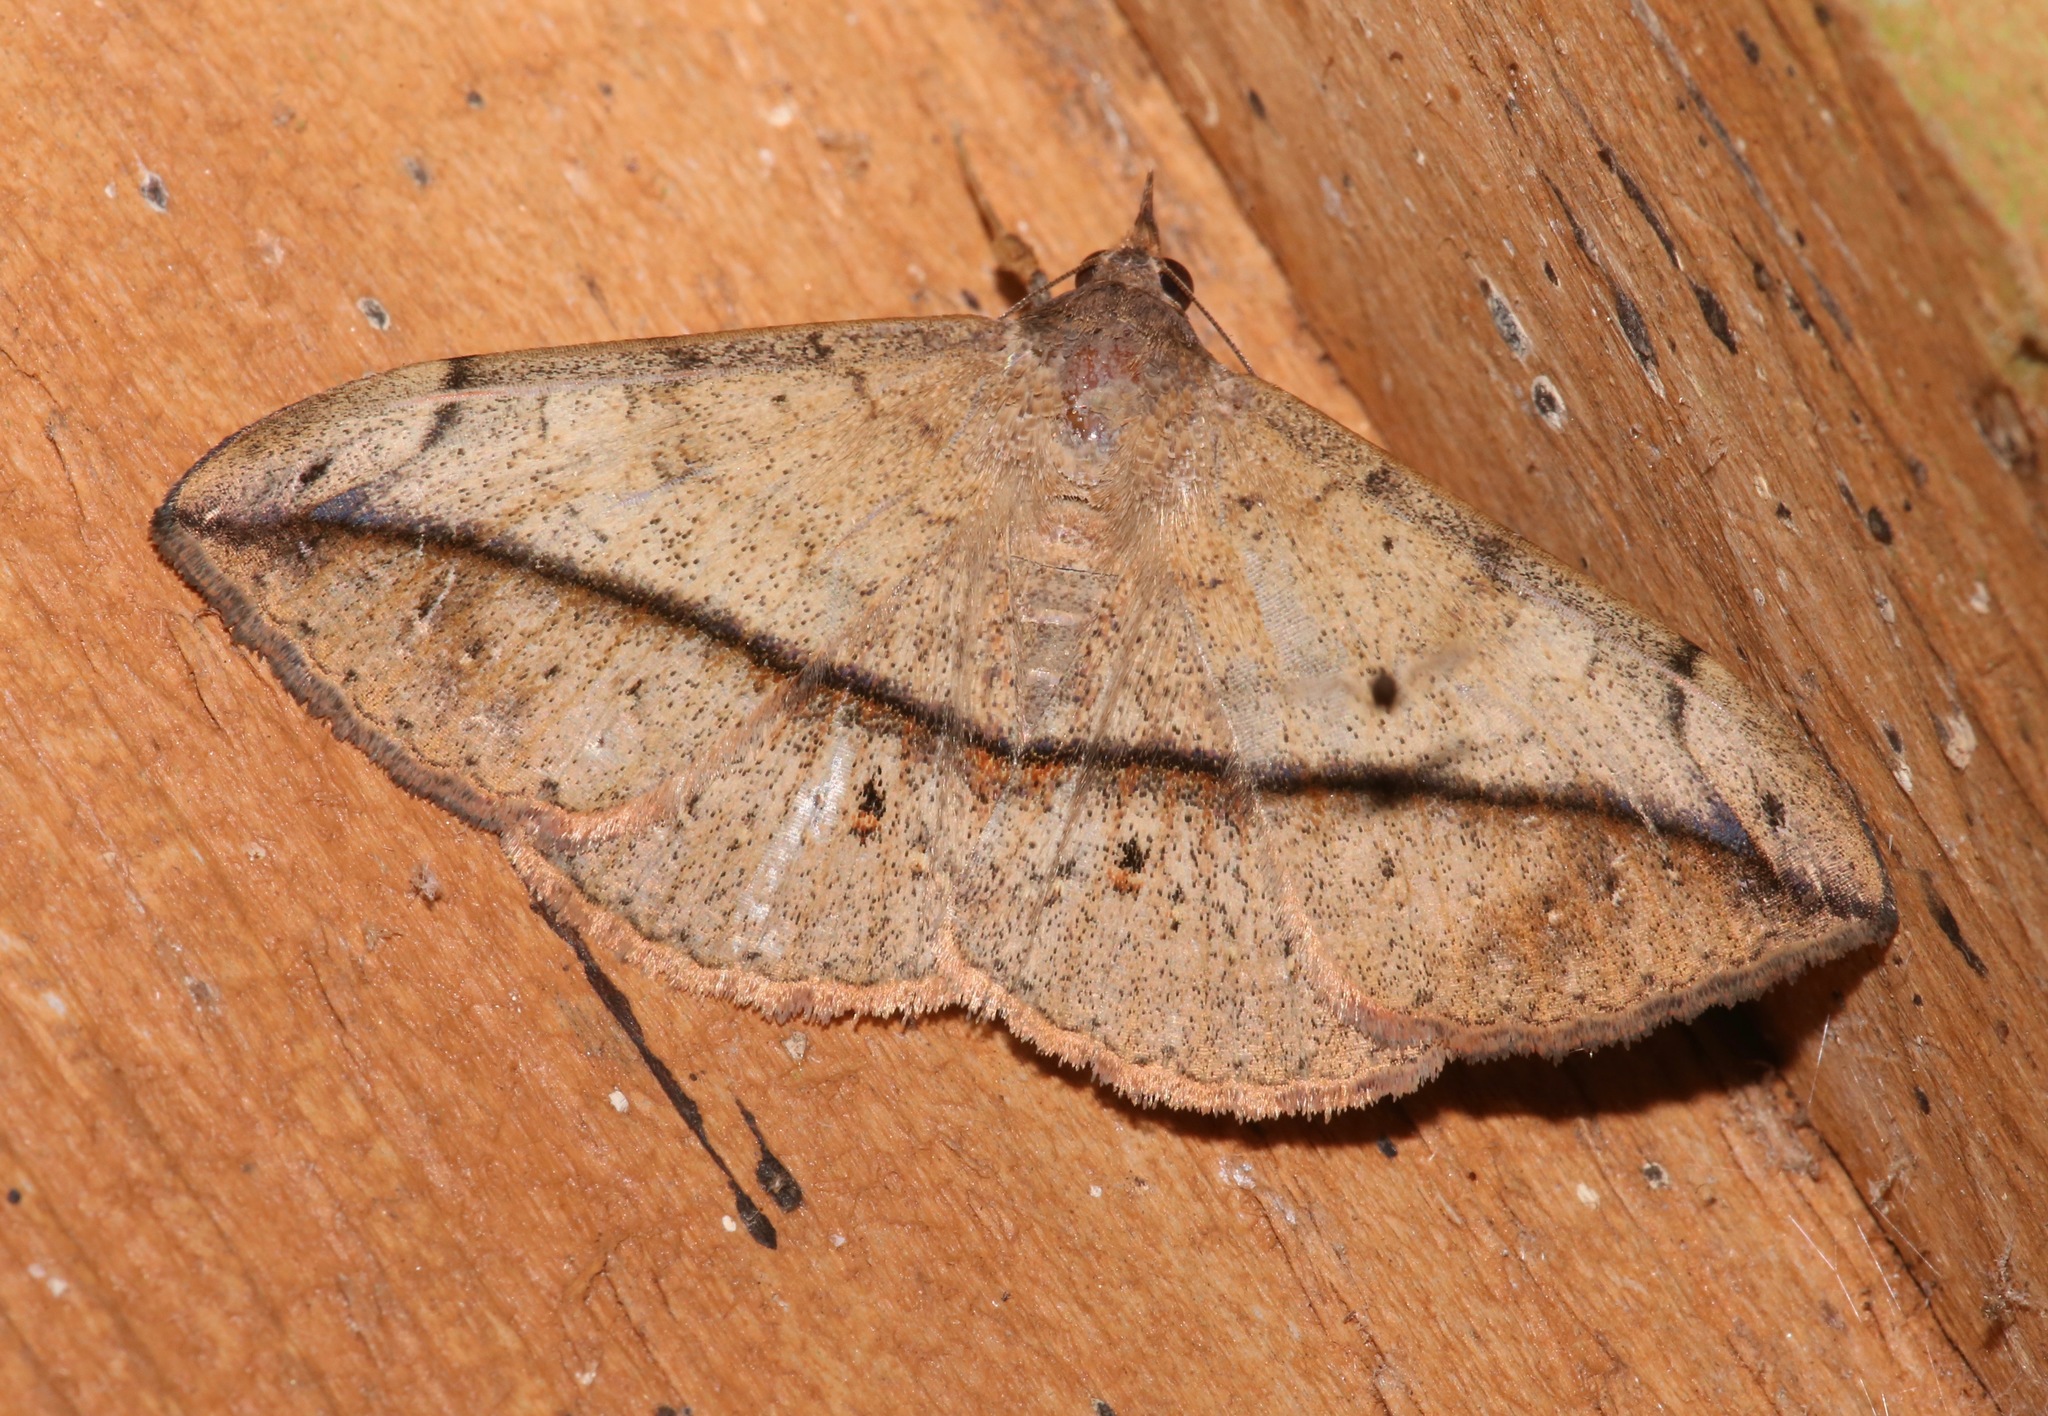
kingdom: Animalia
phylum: Arthropoda
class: Insecta
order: Lepidoptera
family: Erebidae
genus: Anticarsia
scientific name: Anticarsia gemmatalis
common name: Cutworm moth
